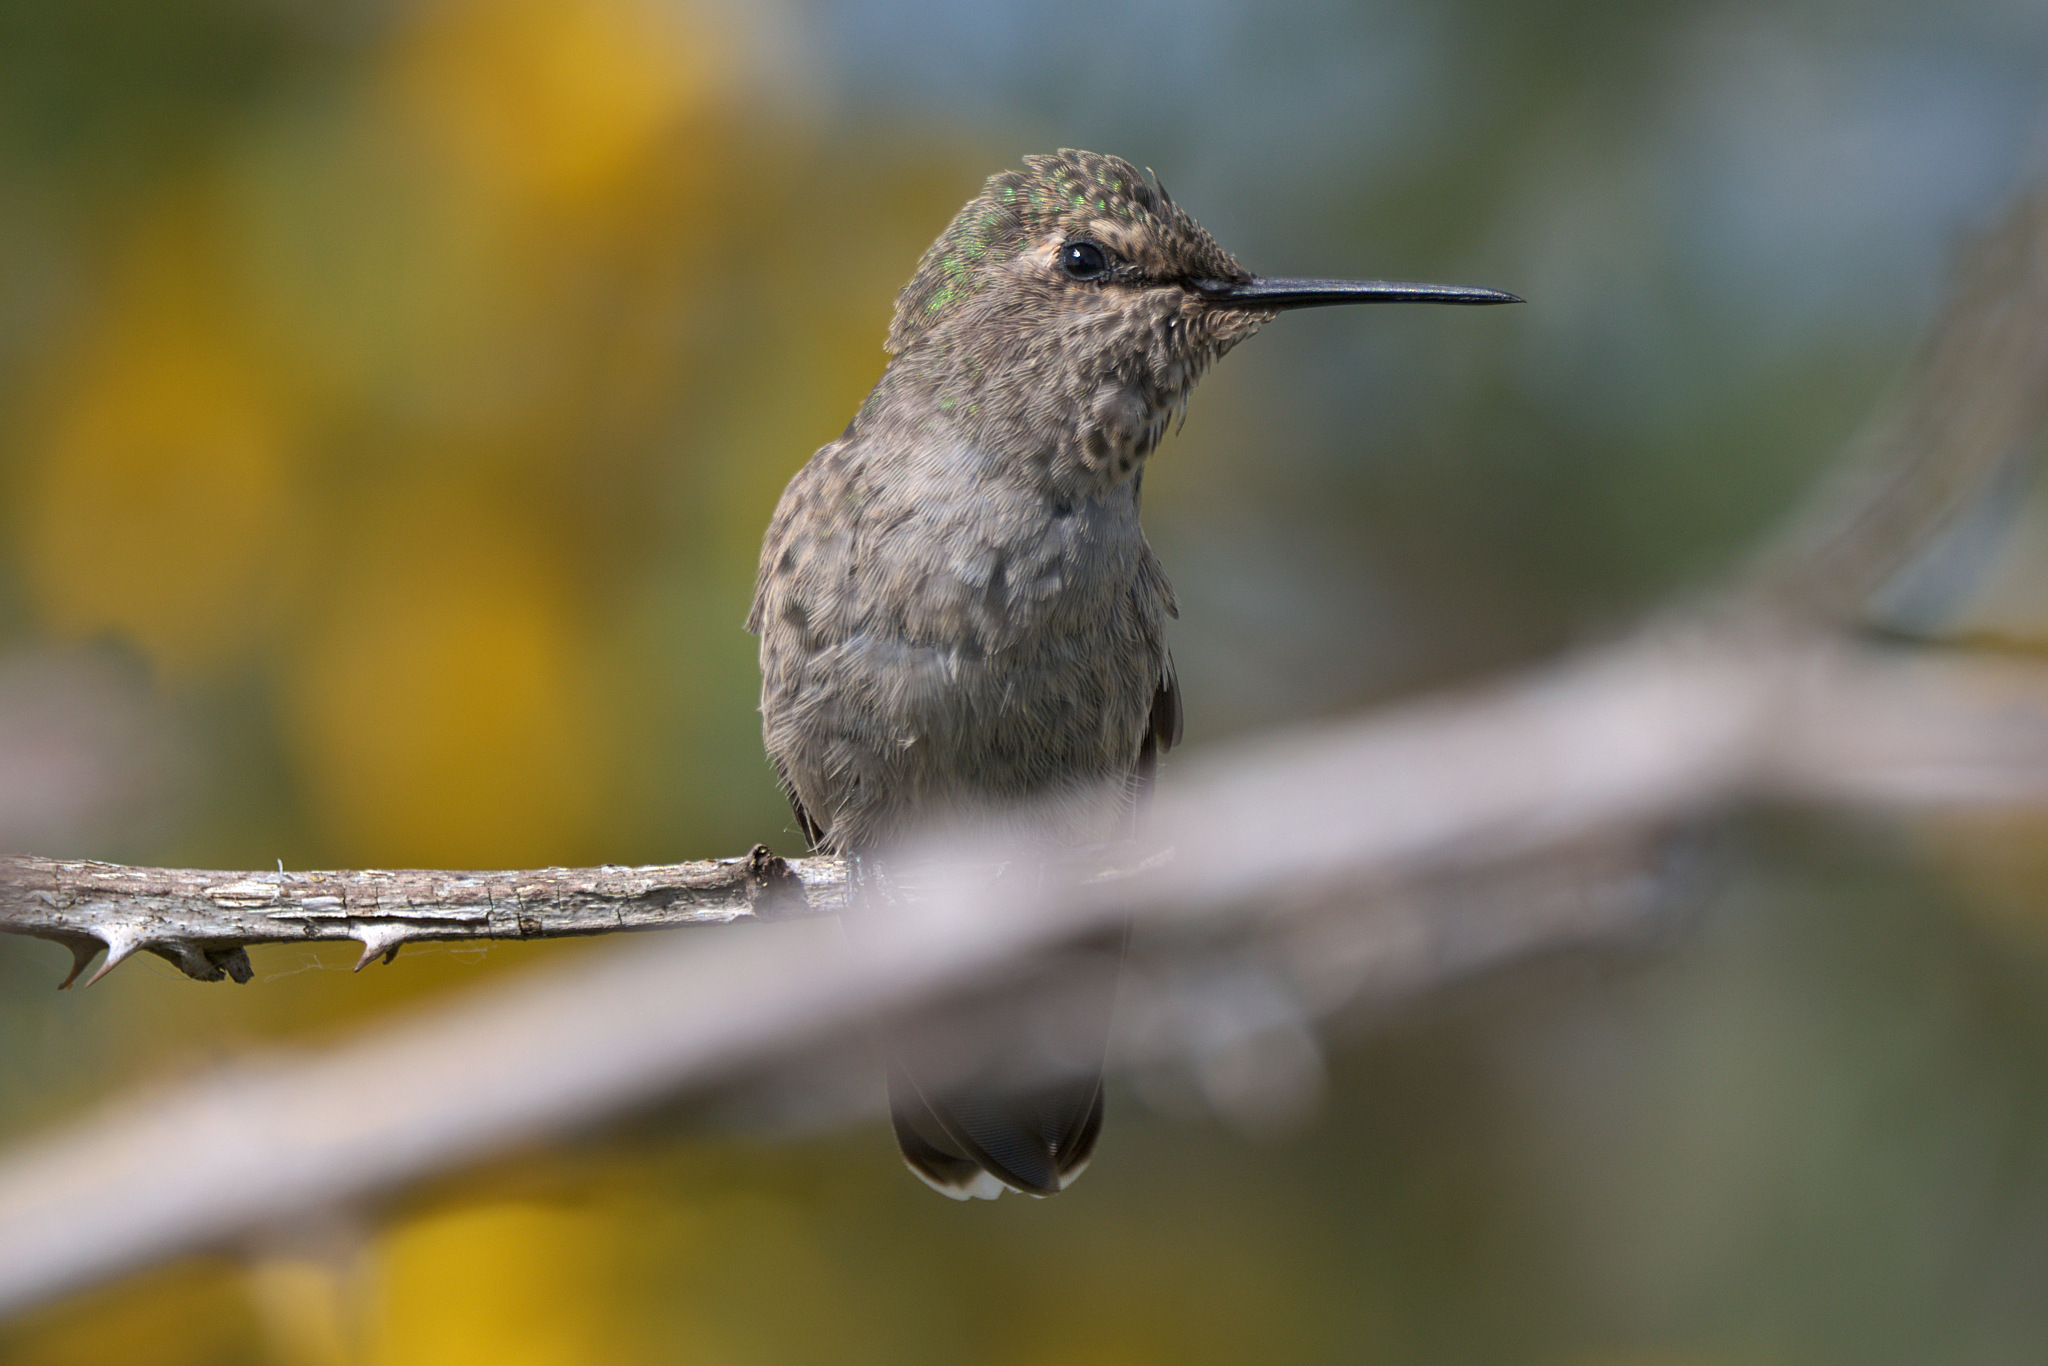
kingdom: Animalia
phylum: Chordata
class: Aves
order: Apodiformes
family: Trochilidae
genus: Calypte
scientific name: Calypte anna
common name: Anna's hummingbird
